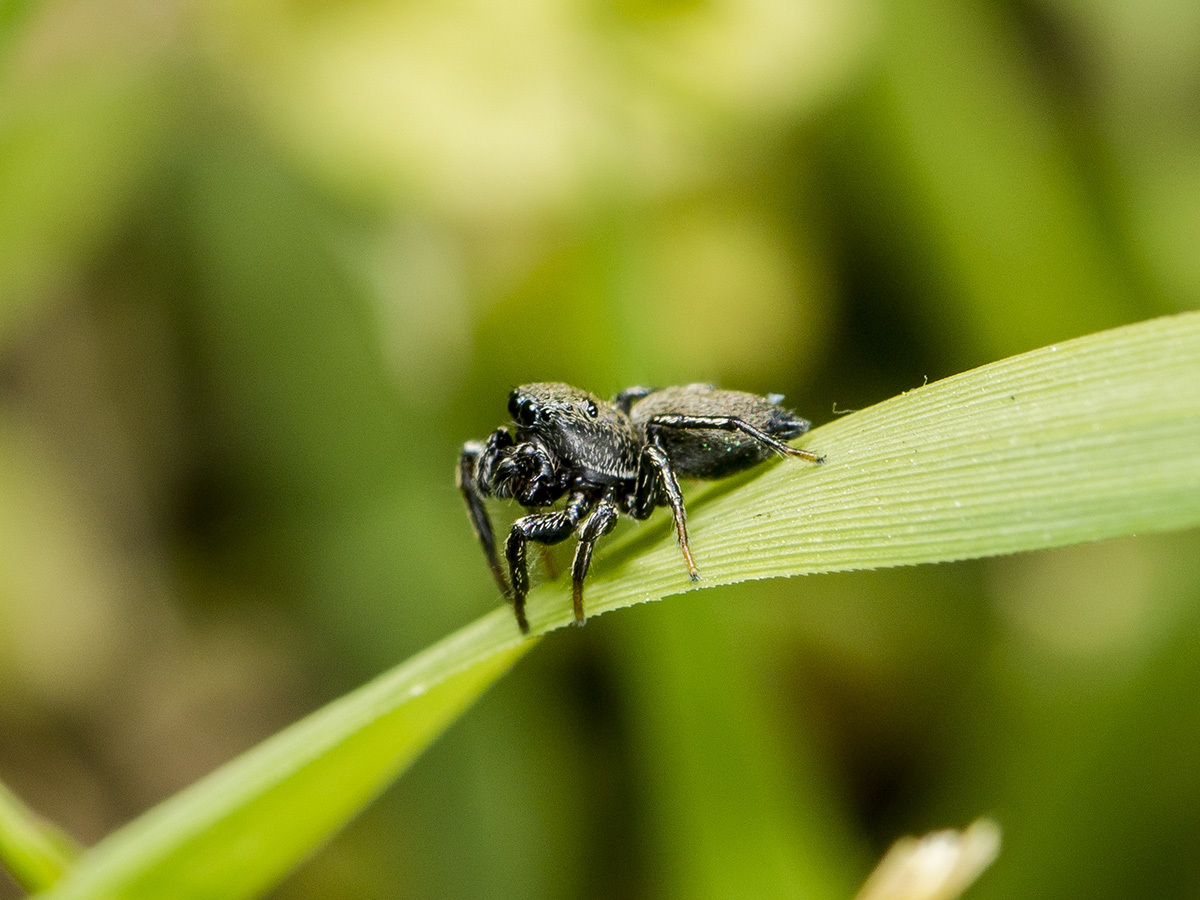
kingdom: Animalia
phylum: Arthropoda
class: Arachnida
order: Araneae
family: Salticidae
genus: Heliophanus
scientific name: Heliophanus forcipifer
